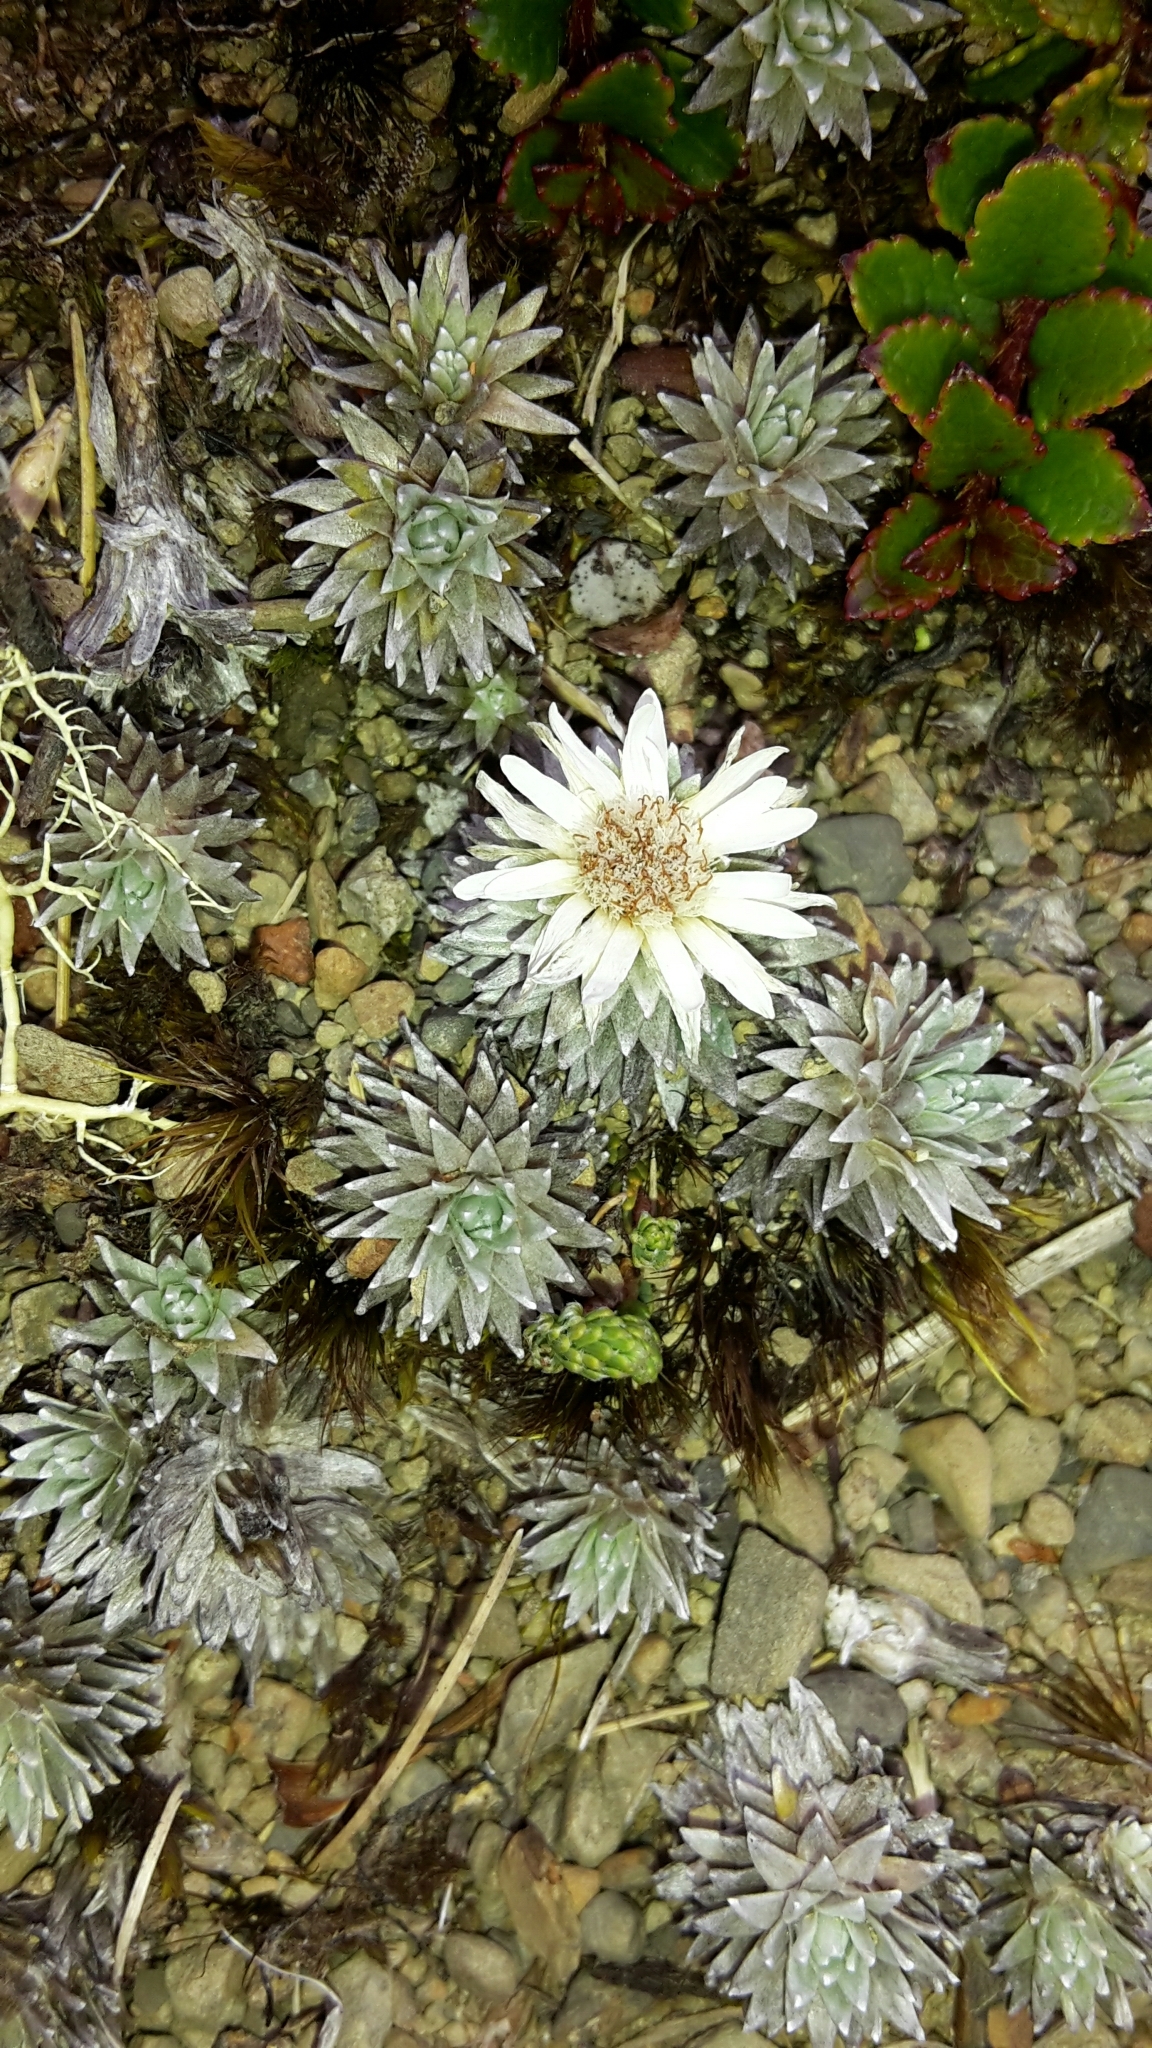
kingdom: Plantae
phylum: Tracheophyta
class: Magnoliopsida
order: Asterales
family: Asteraceae
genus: Raoulia
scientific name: Raoulia grandiflora
